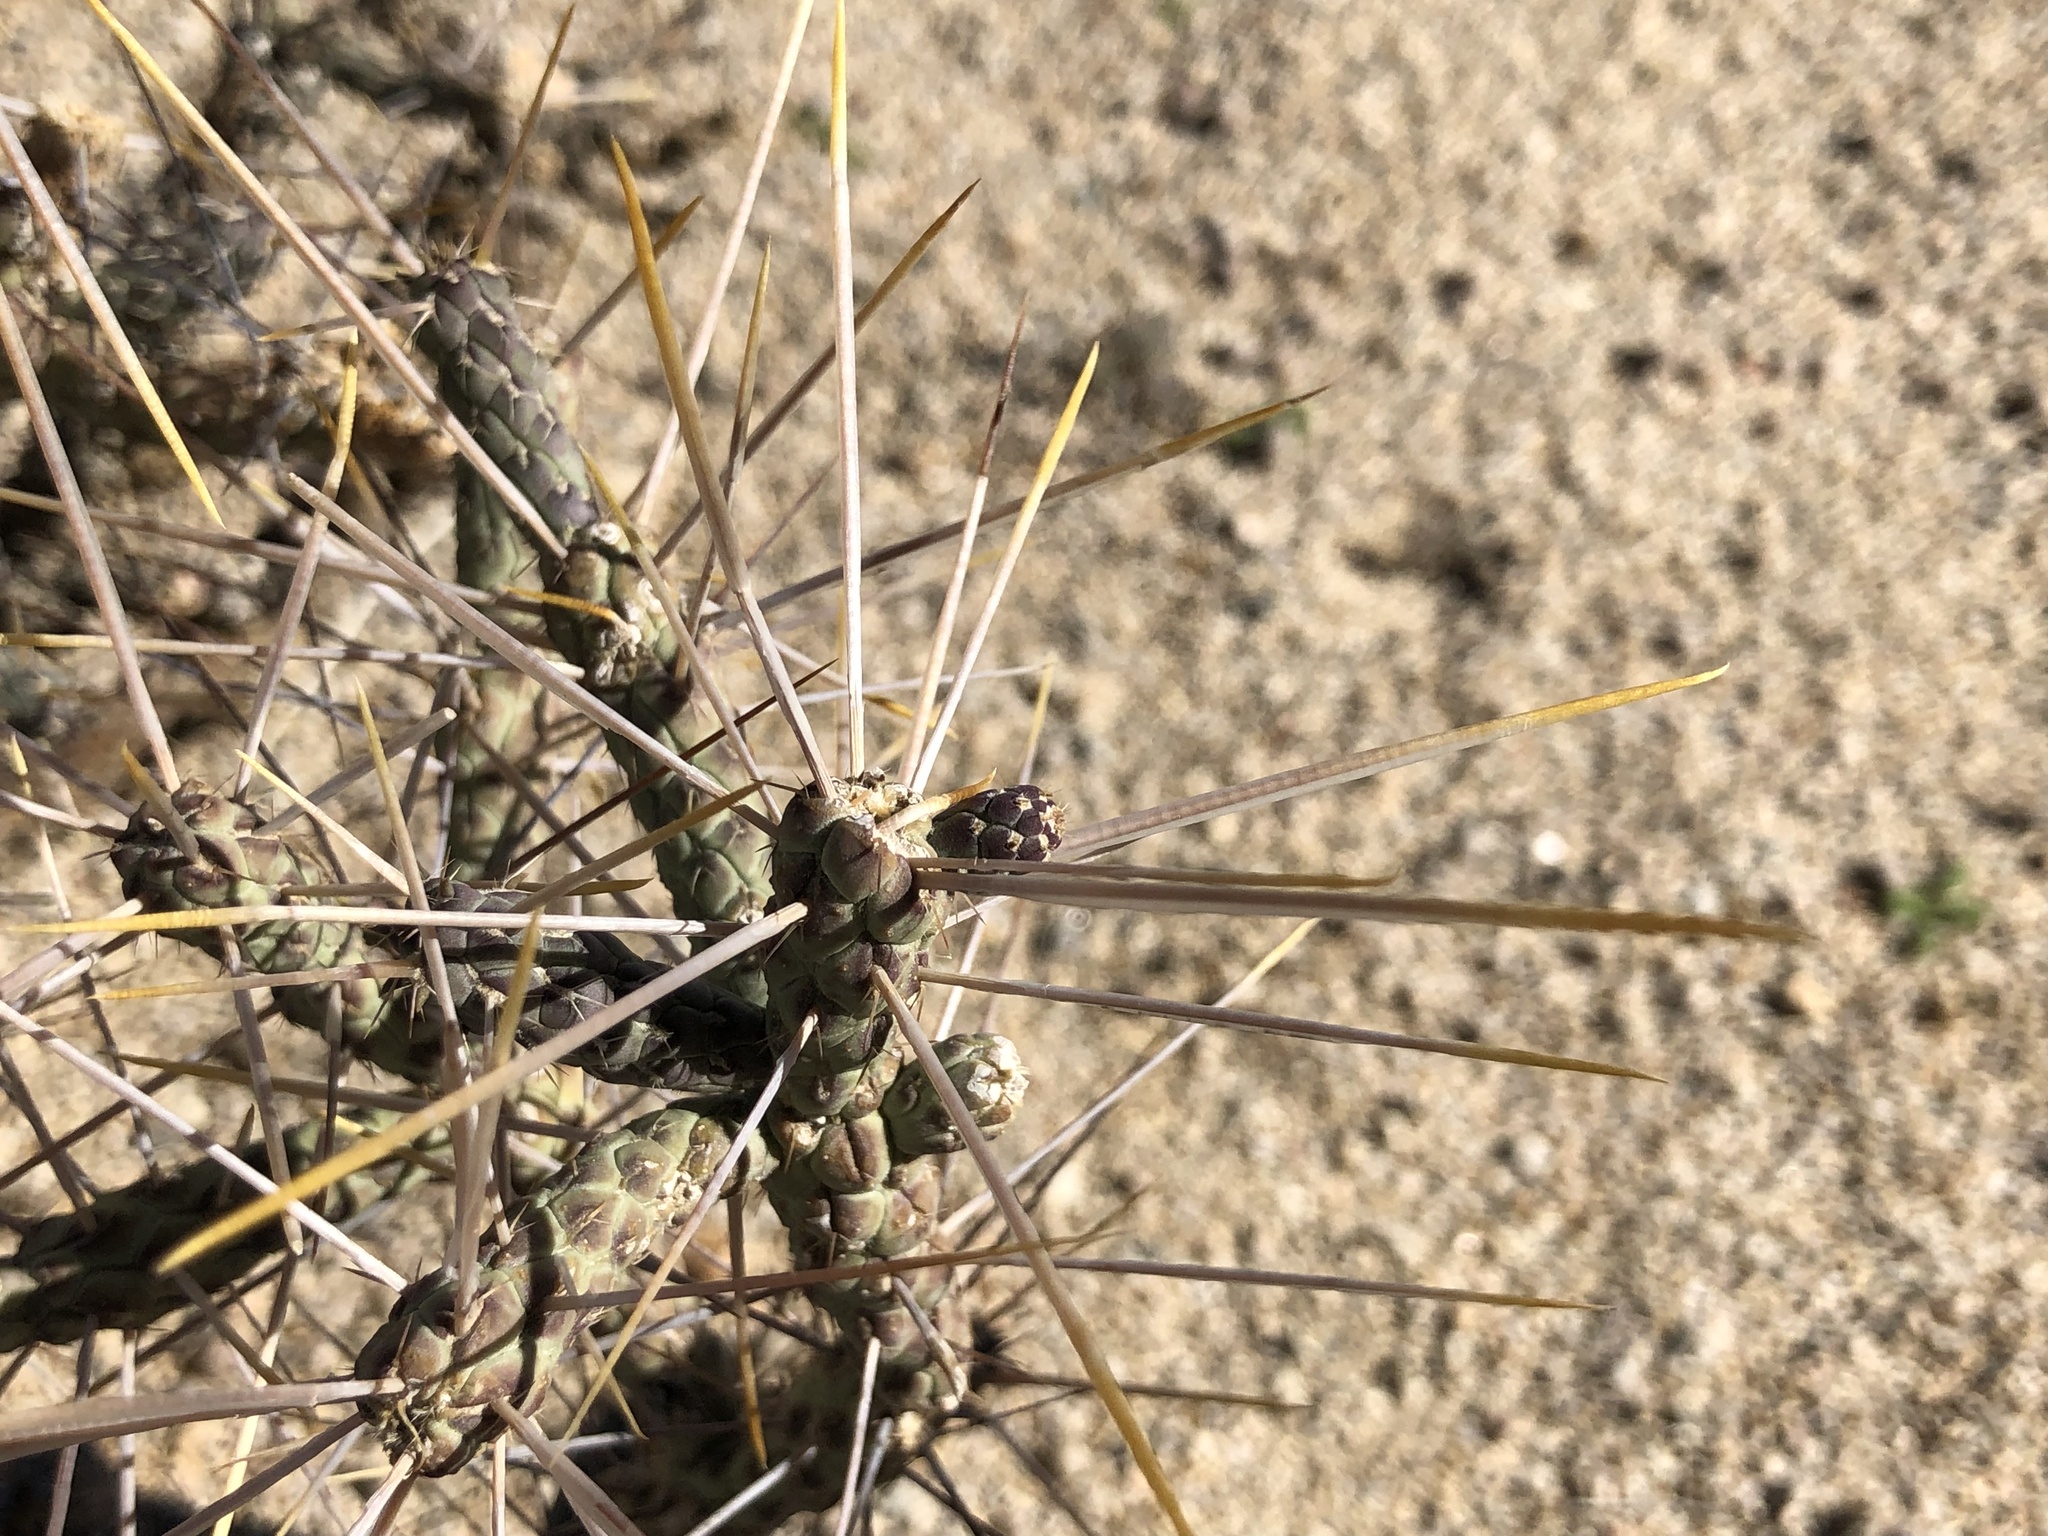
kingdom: Plantae
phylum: Tracheophyta
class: Magnoliopsida
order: Caryophyllales
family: Cactaceae
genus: Cylindropuntia
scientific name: Cylindropuntia ramosissima
